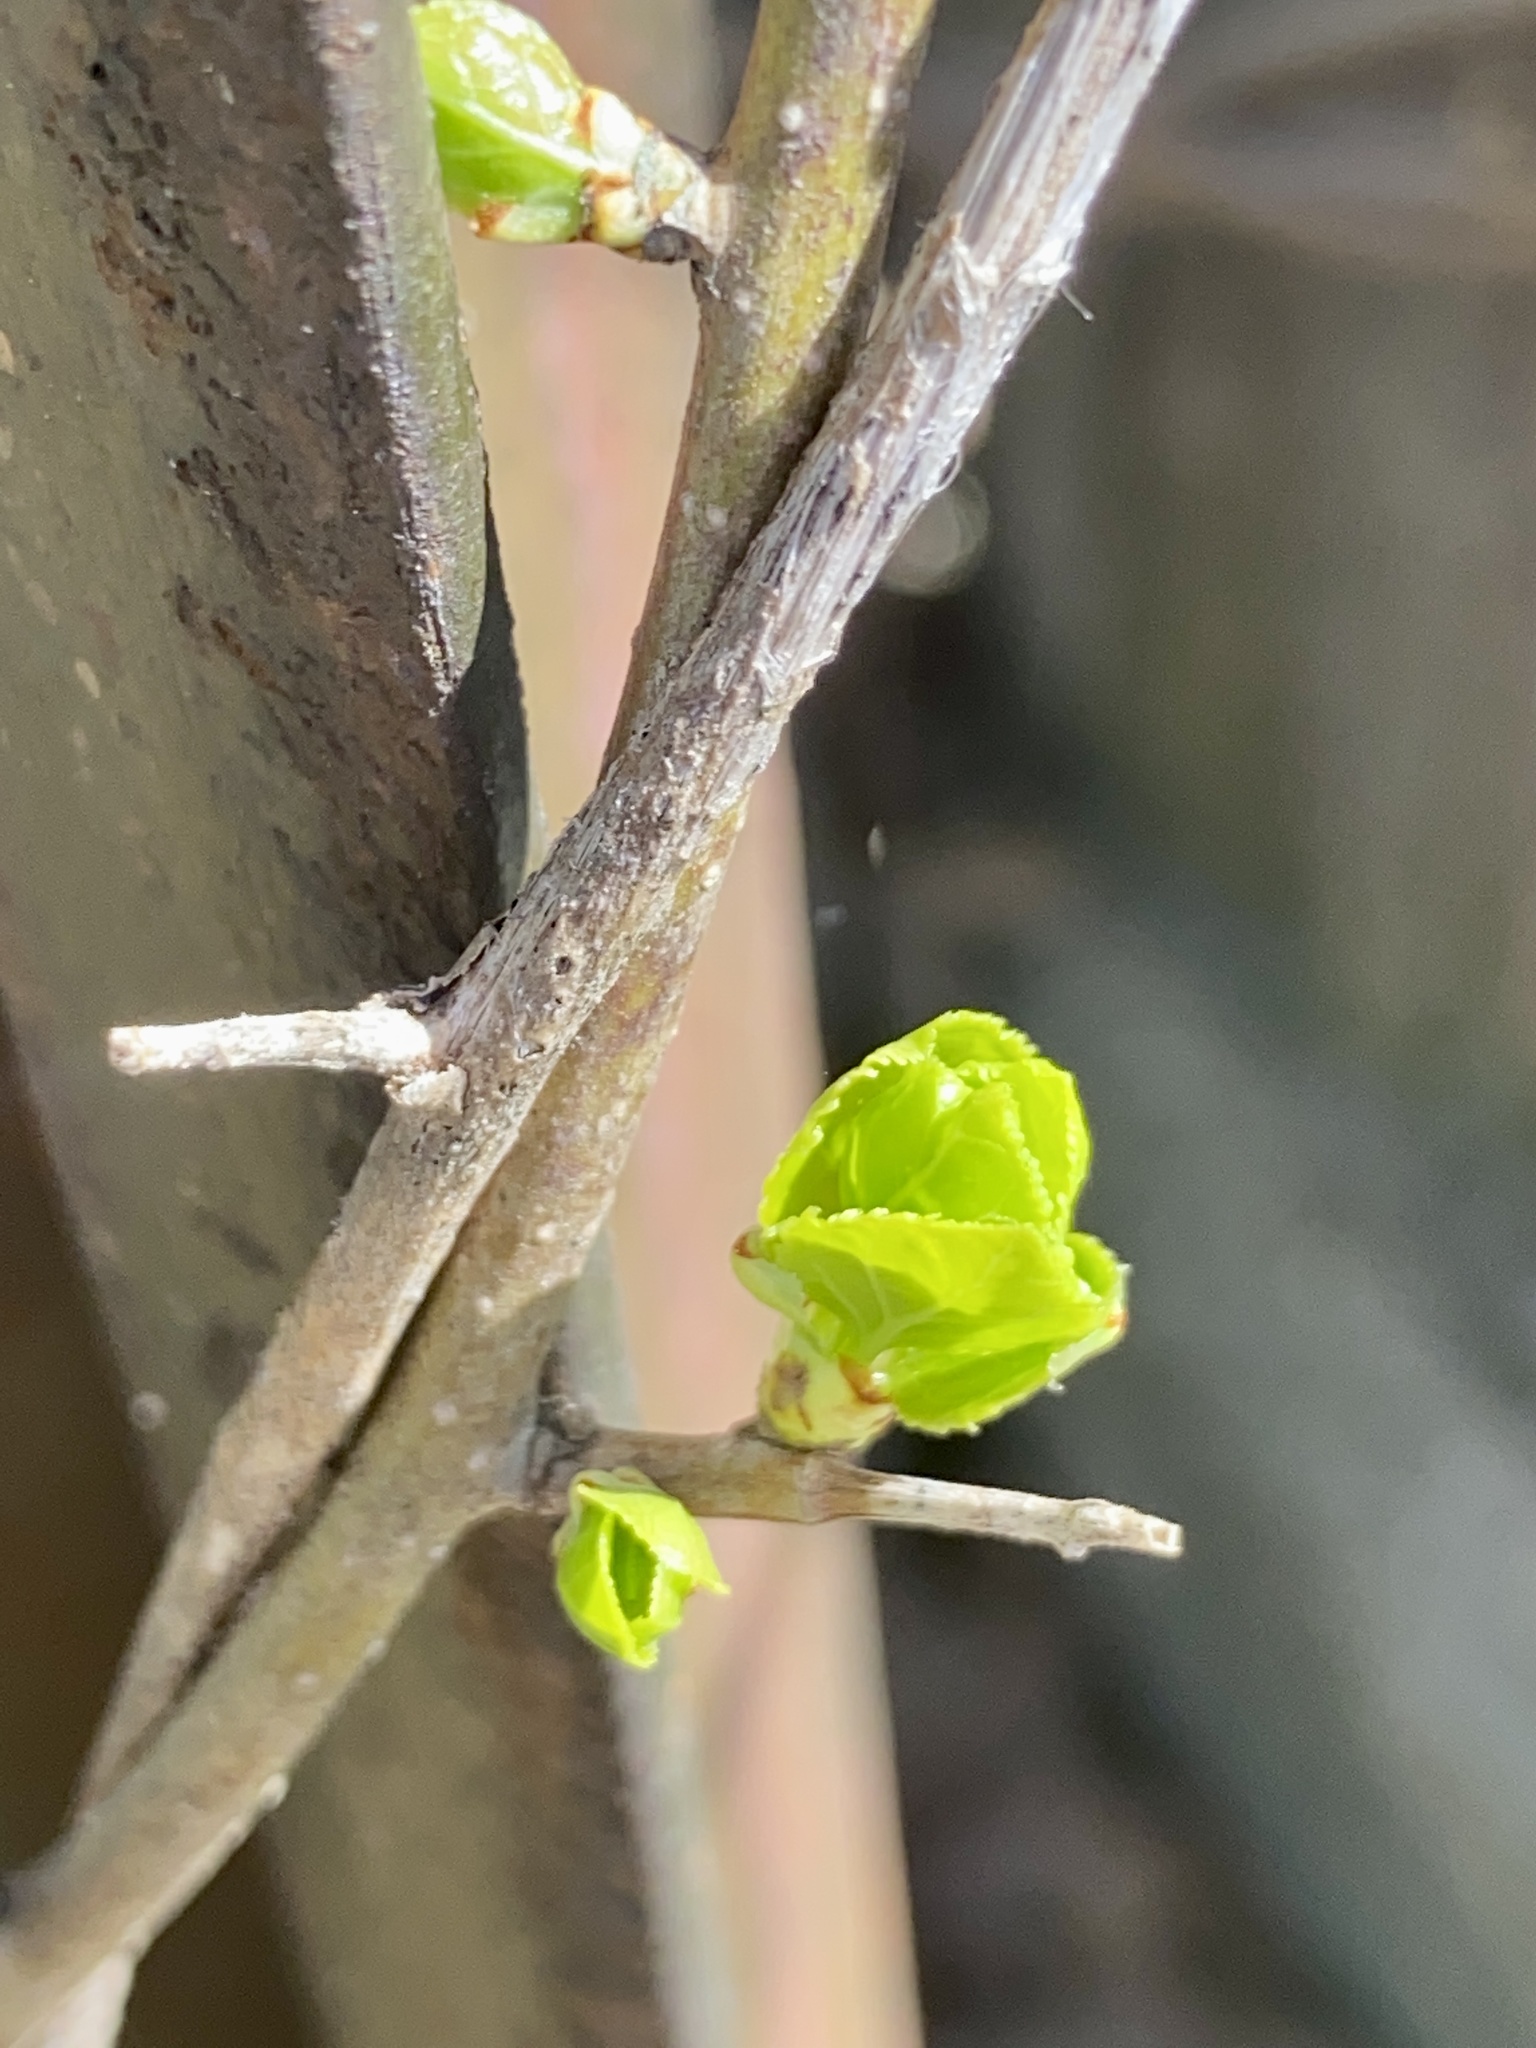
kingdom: Plantae
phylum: Tracheophyta
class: Magnoliopsida
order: Celastrales
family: Celastraceae
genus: Celastrus
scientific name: Celastrus orbiculatus
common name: Oriental bittersweet
